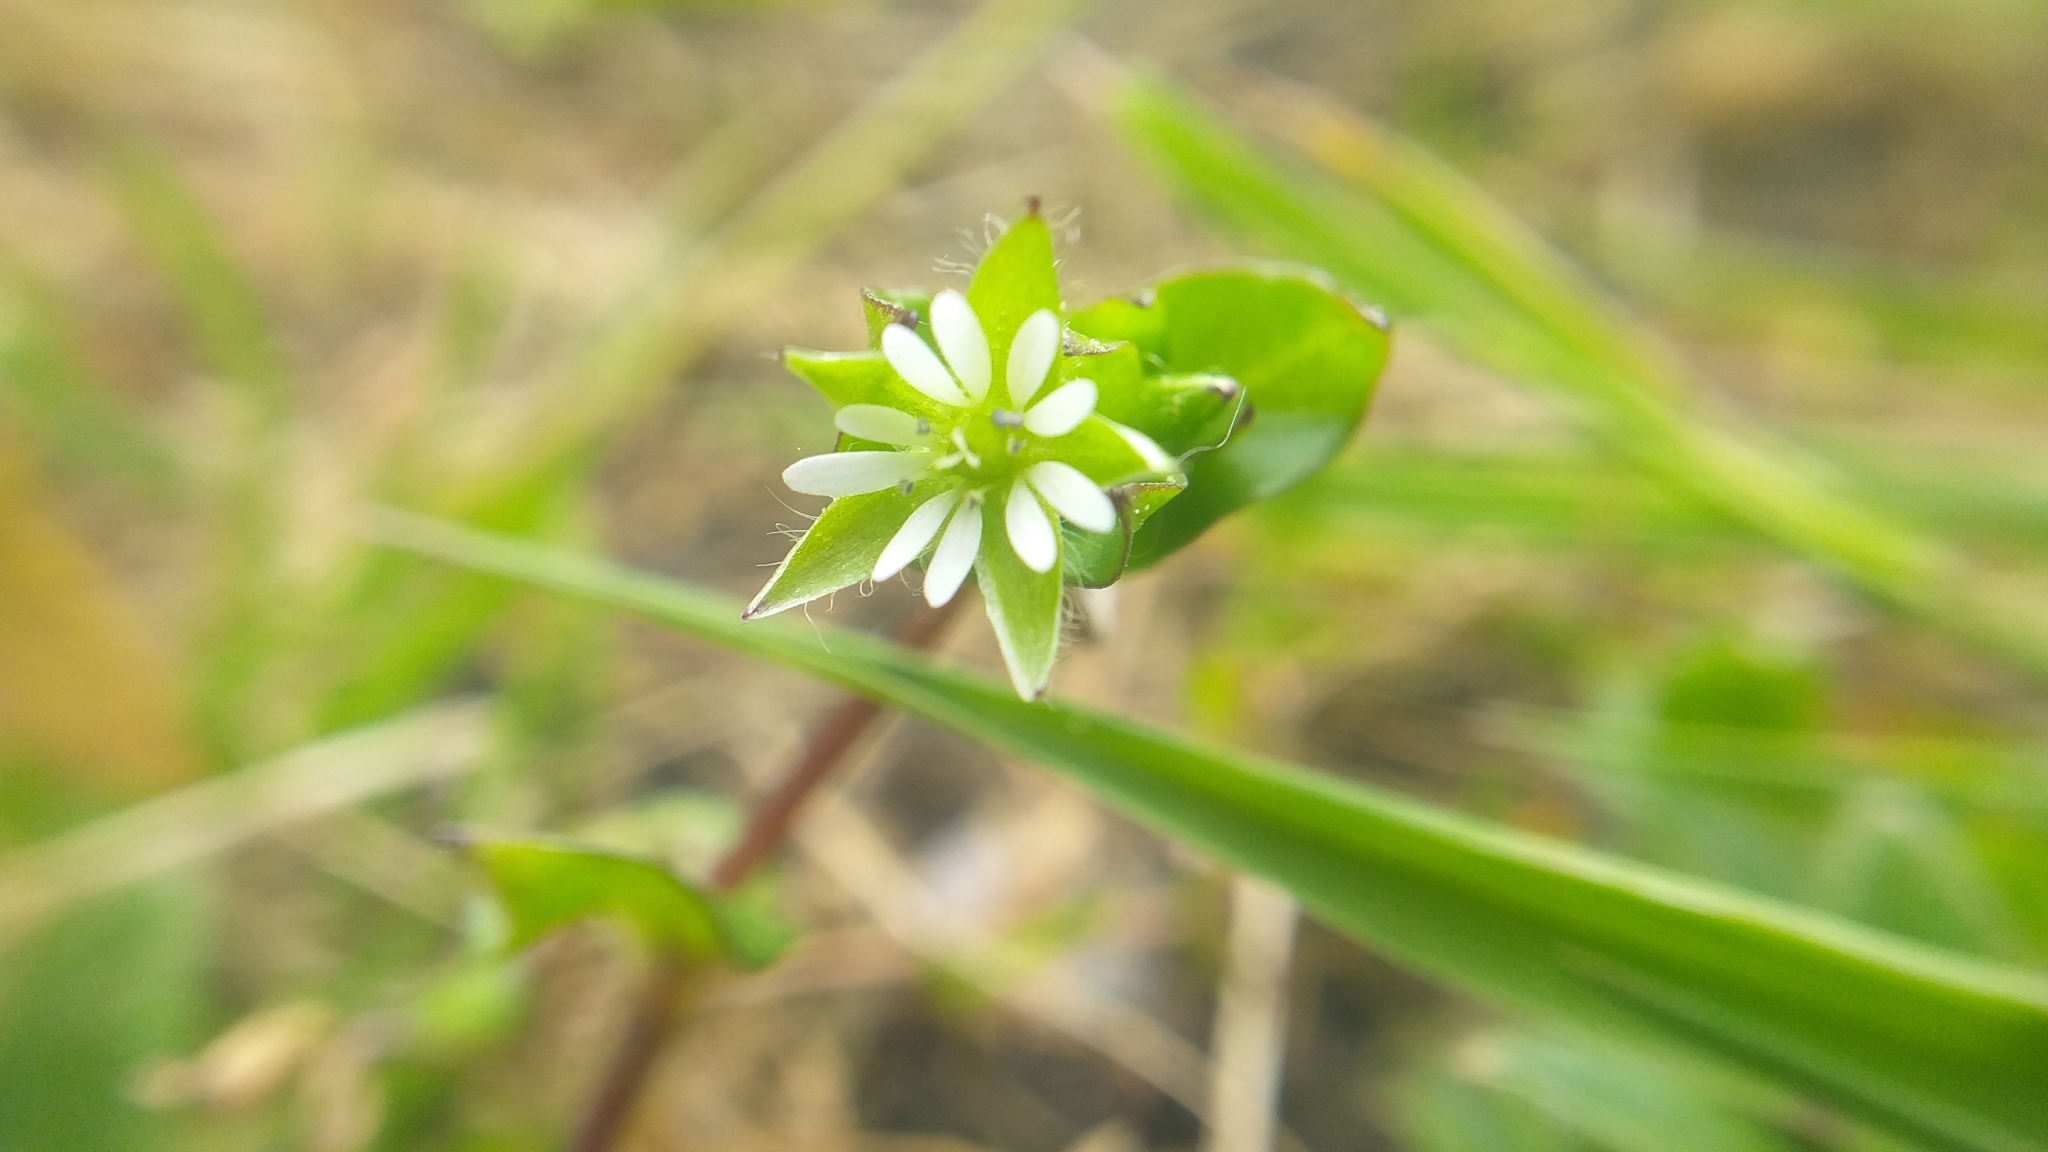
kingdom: Plantae
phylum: Tracheophyta
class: Magnoliopsida
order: Caryophyllales
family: Caryophyllaceae
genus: Stellaria
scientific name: Stellaria media
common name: Common chickweed
